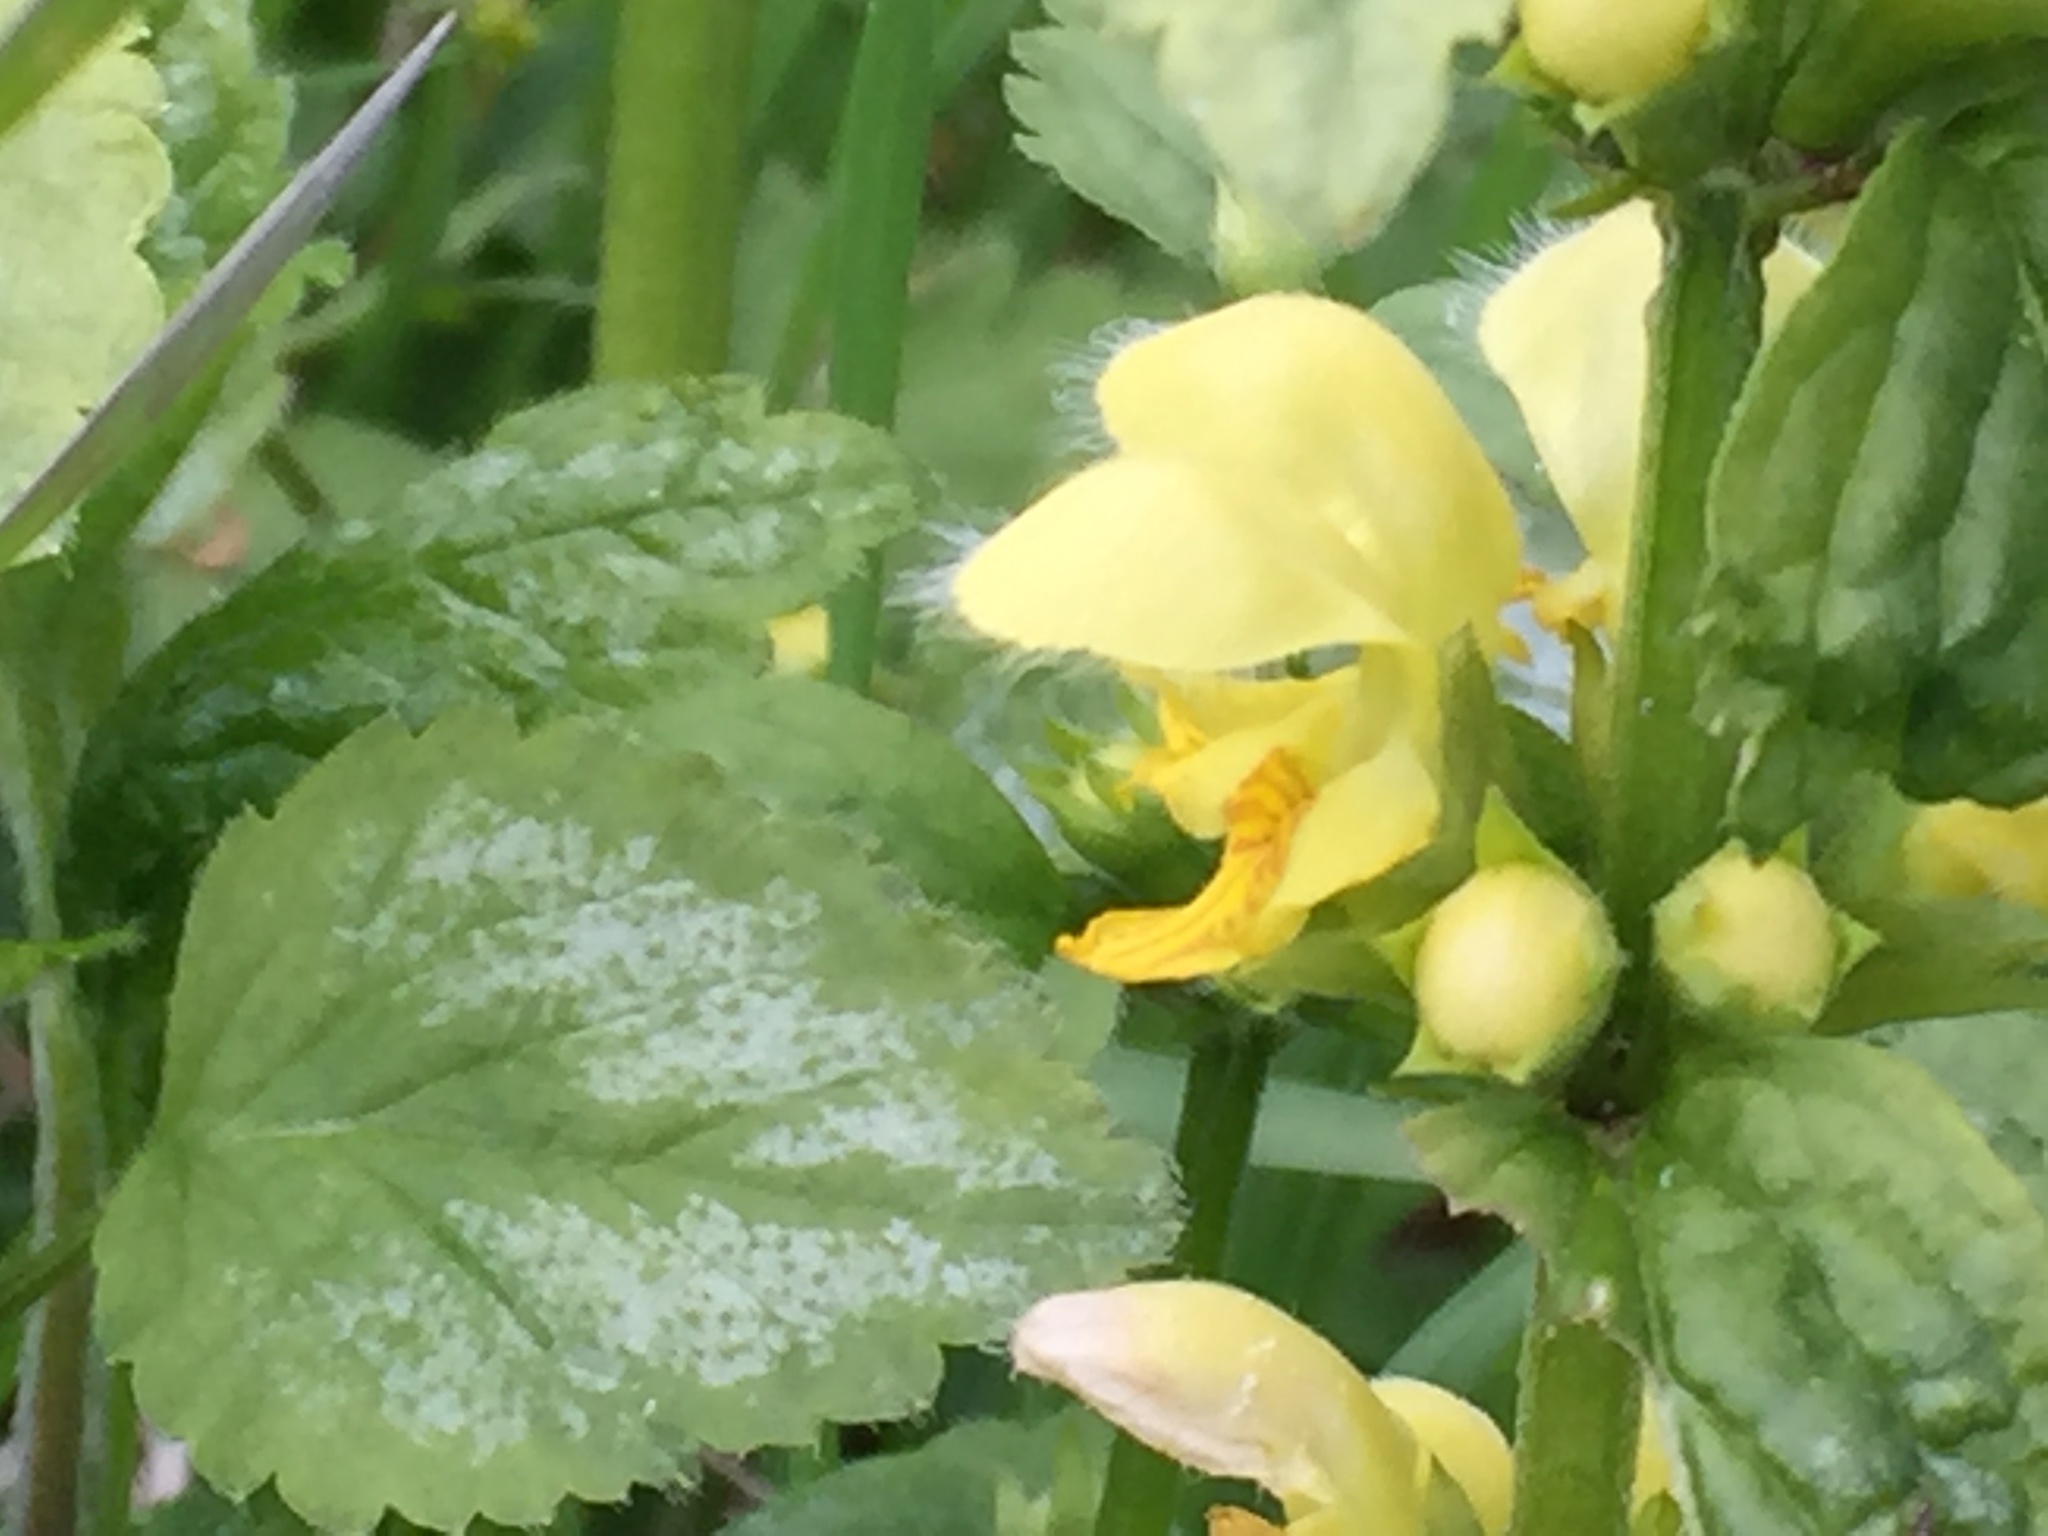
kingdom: Plantae
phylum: Tracheophyta
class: Magnoliopsida
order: Lamiales
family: Lamiaceae
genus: Lamium
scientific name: Lamium galeobdolon
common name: Yellow archangel
